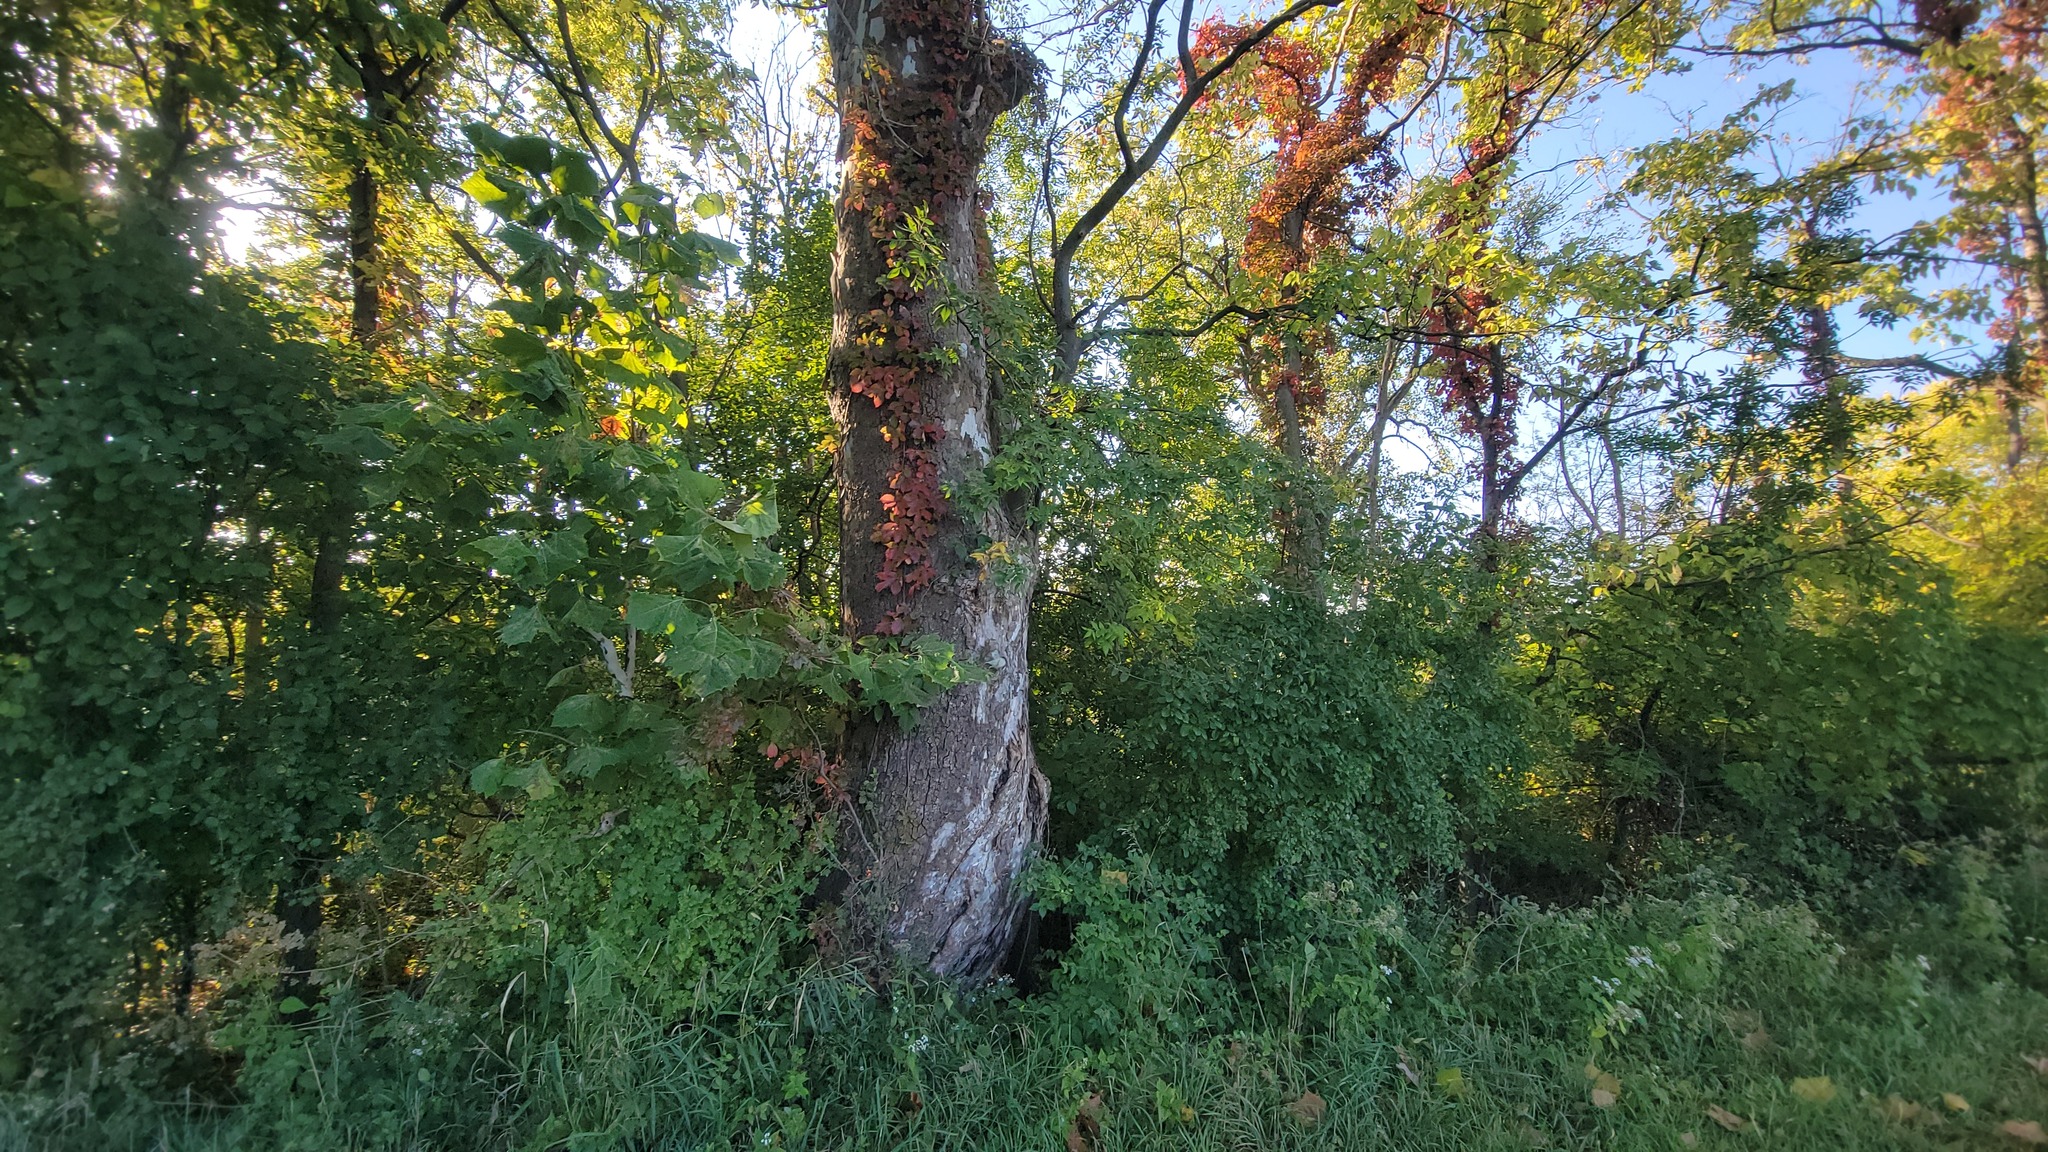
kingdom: Plantae
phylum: Tracheophyta
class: Magnoliopsida
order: Vitales
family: Vitaceae
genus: Parthenocissus
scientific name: Parthenocissus quinquefolia
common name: Virginia-creeper
